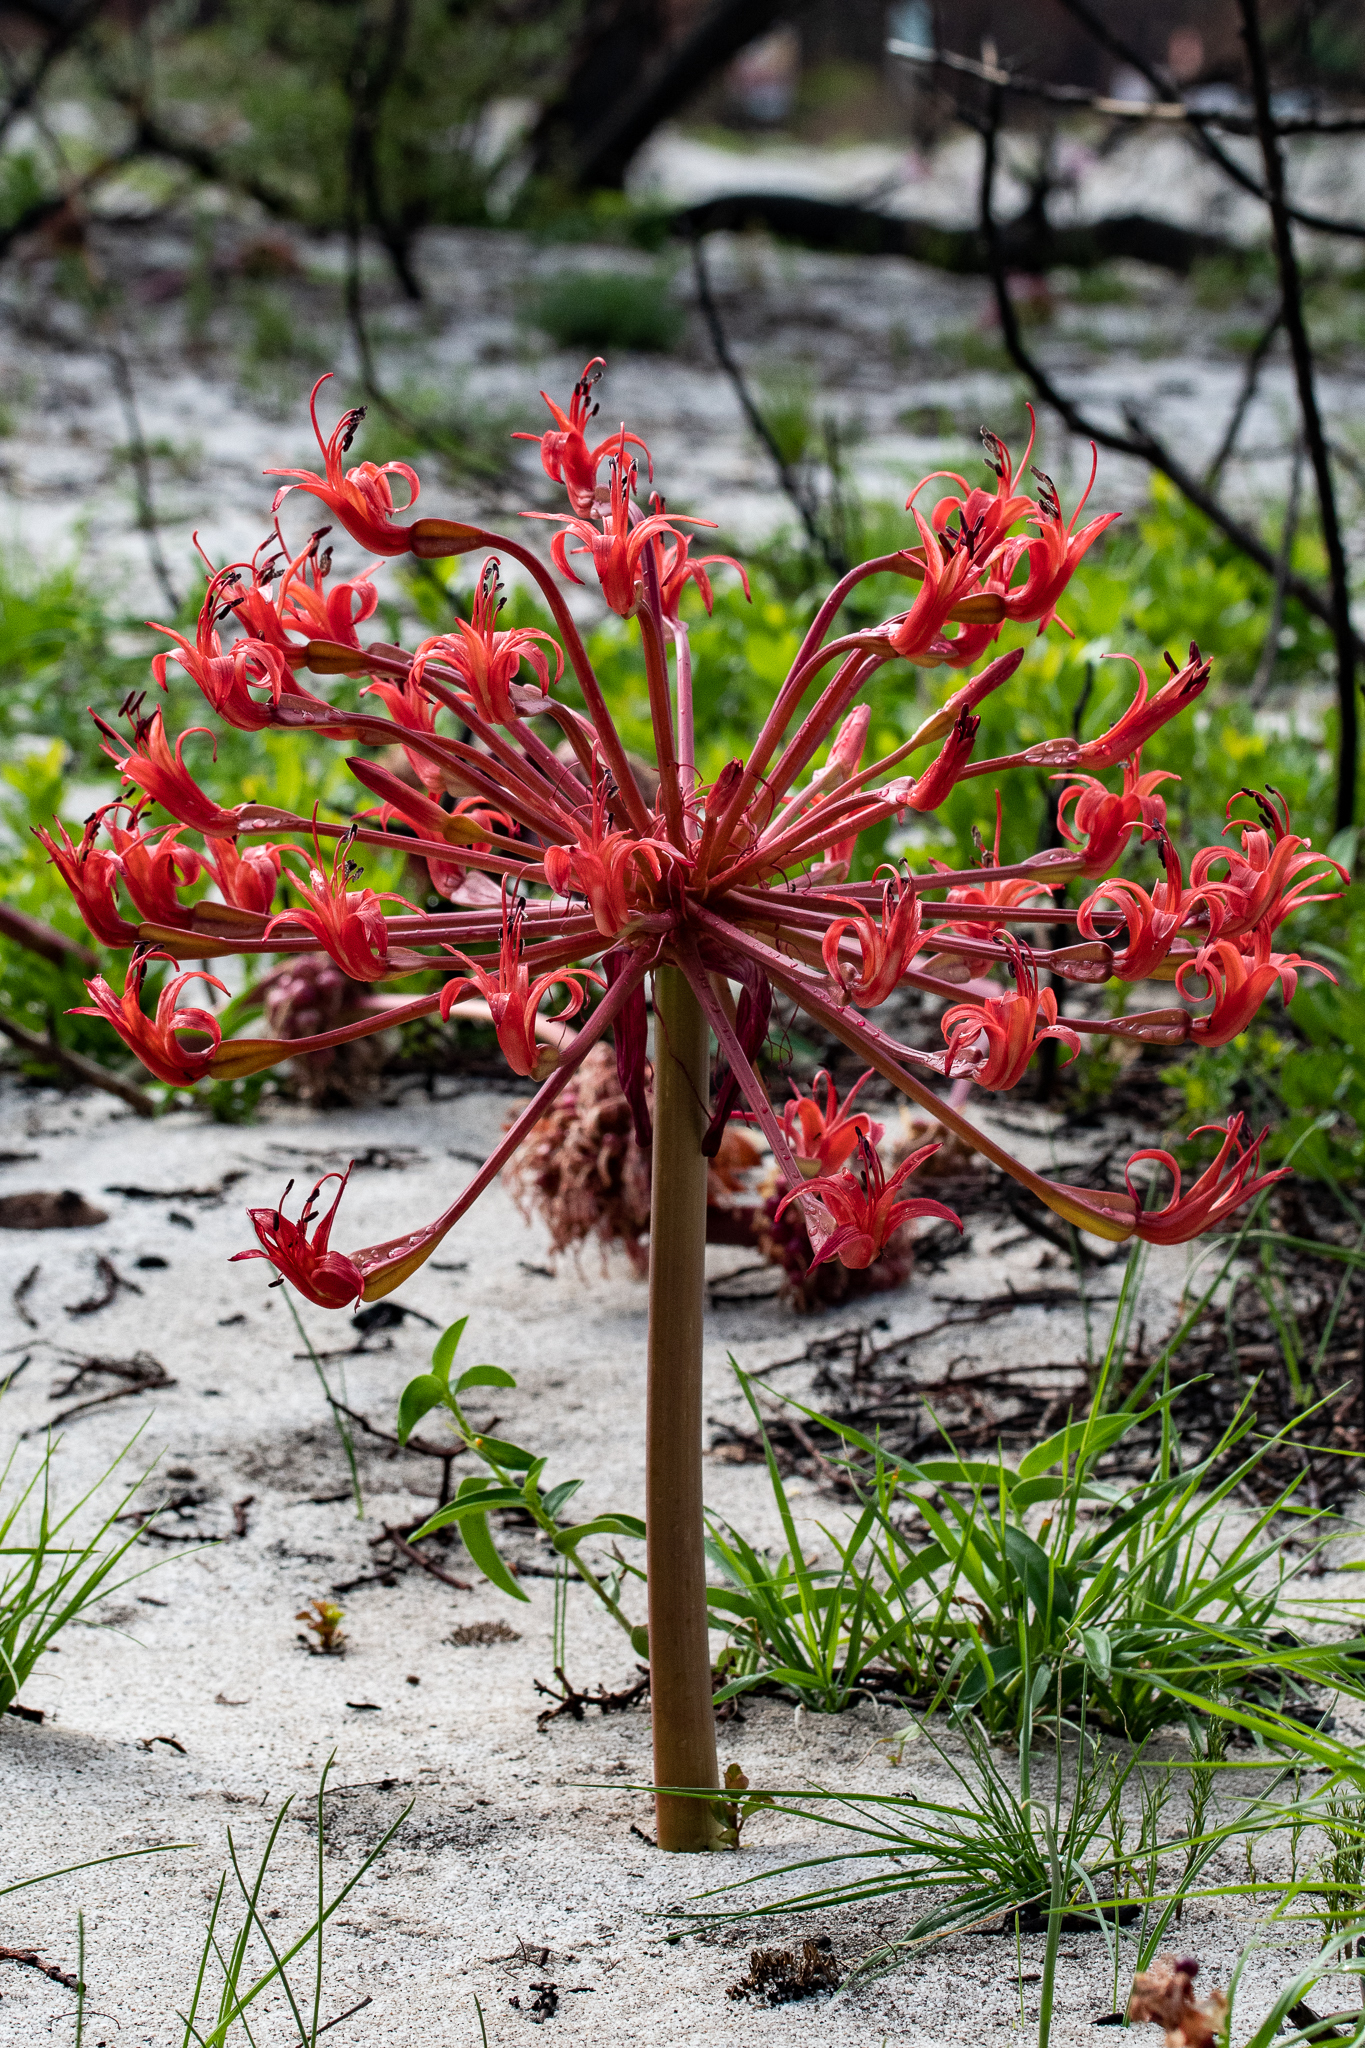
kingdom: Plantae
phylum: Tracheophyta
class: Liliopsida
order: Asparagales
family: Amaryllidaceae
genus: Brunsvigia
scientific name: Brunsvigia orientalis
